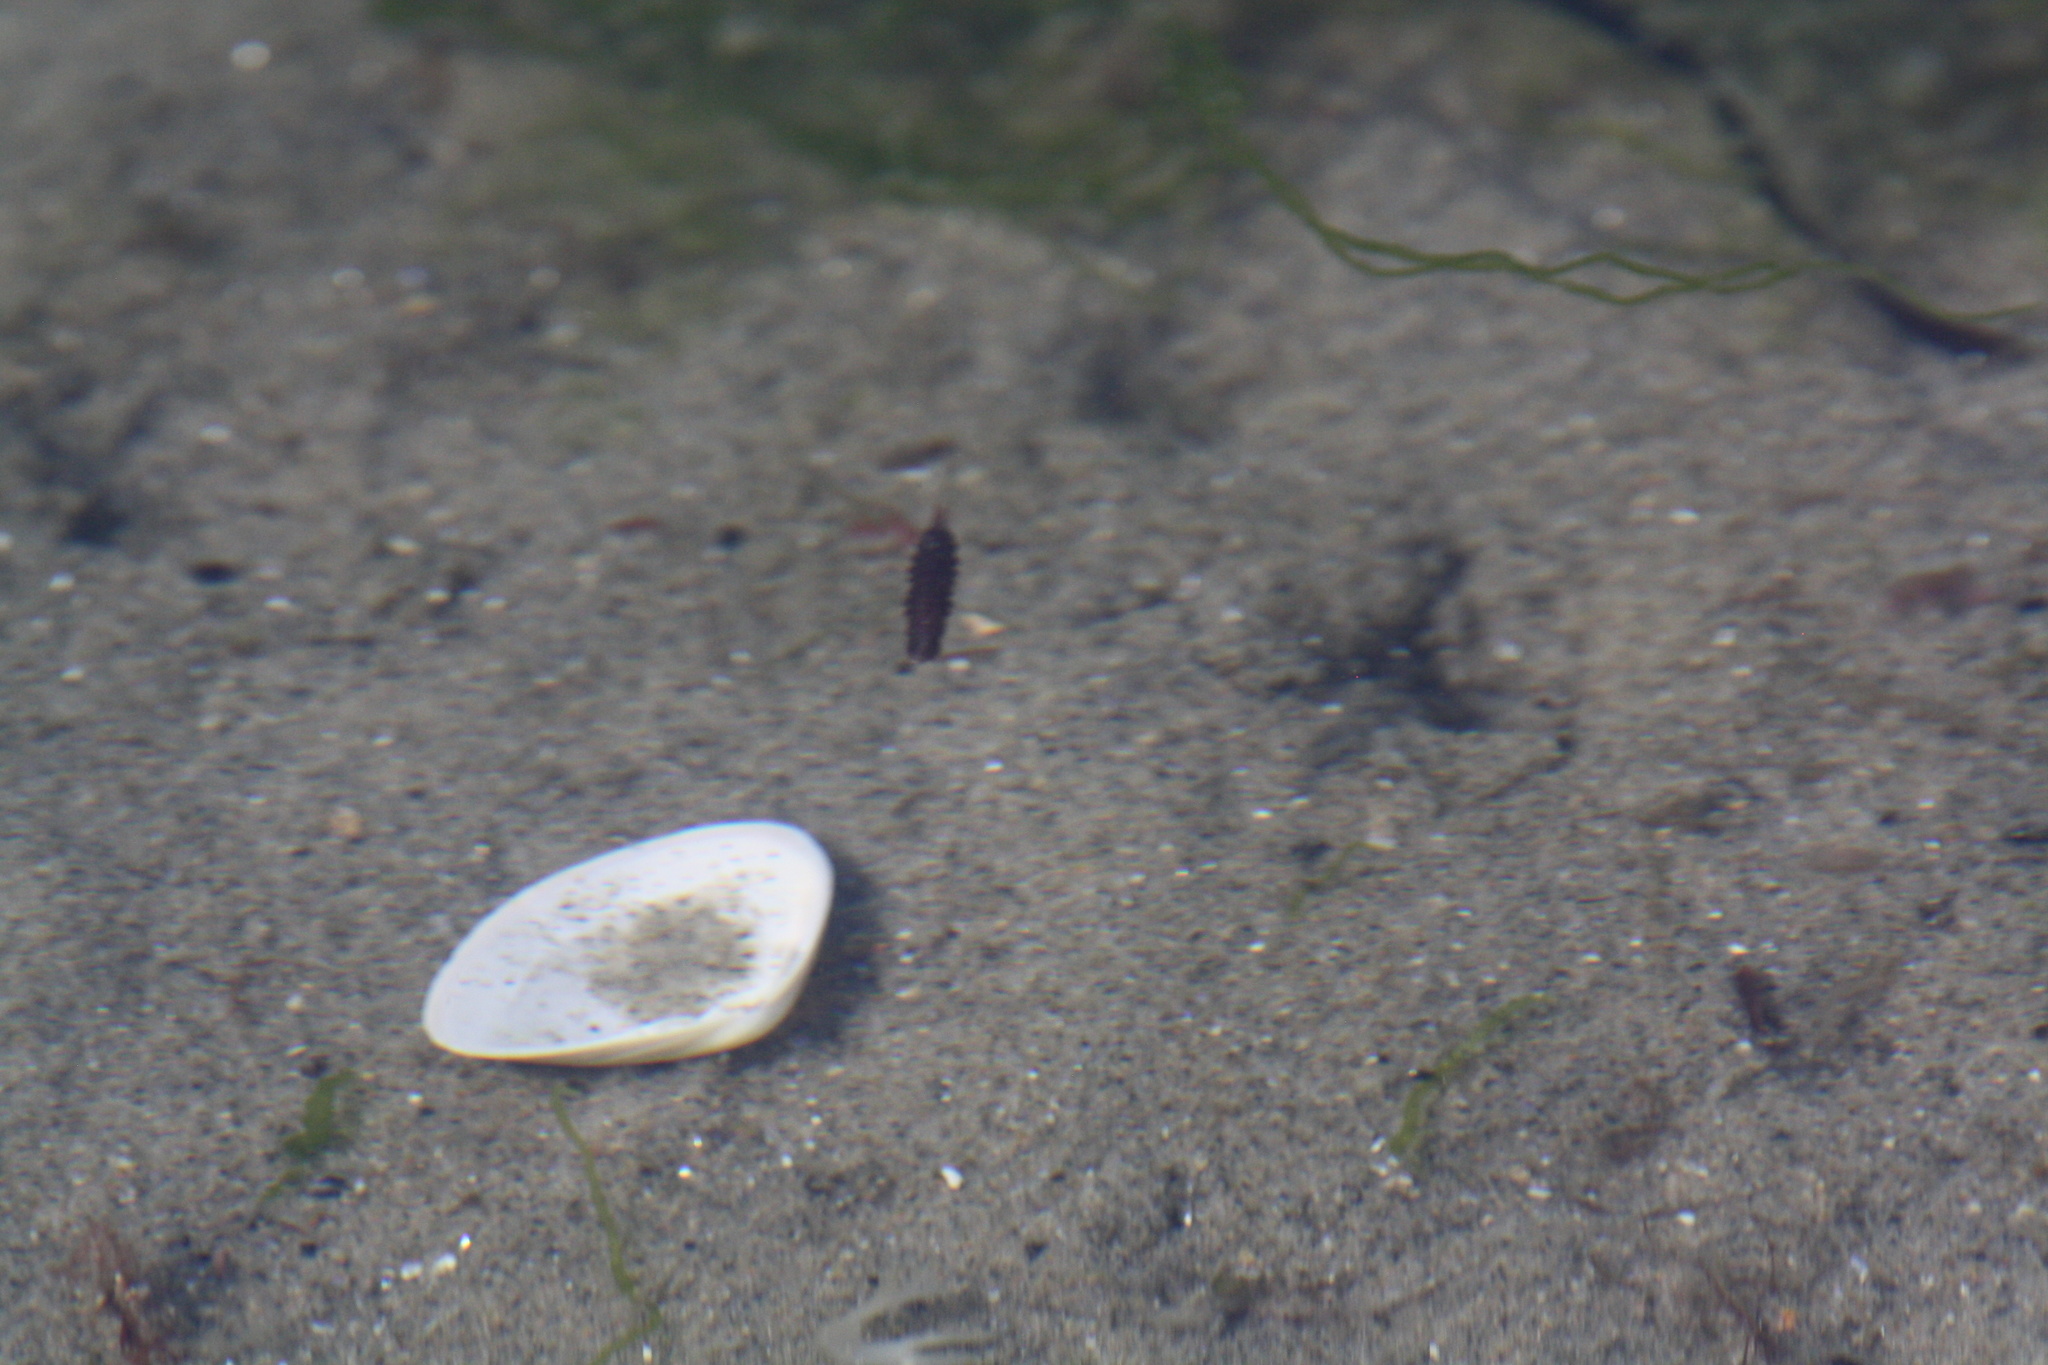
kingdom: Animalia
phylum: Arthropoda
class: Malacostraca
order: Isopoda
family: Idoteidae
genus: Idotea
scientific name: Idotea balthica
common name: Baltic isopod
